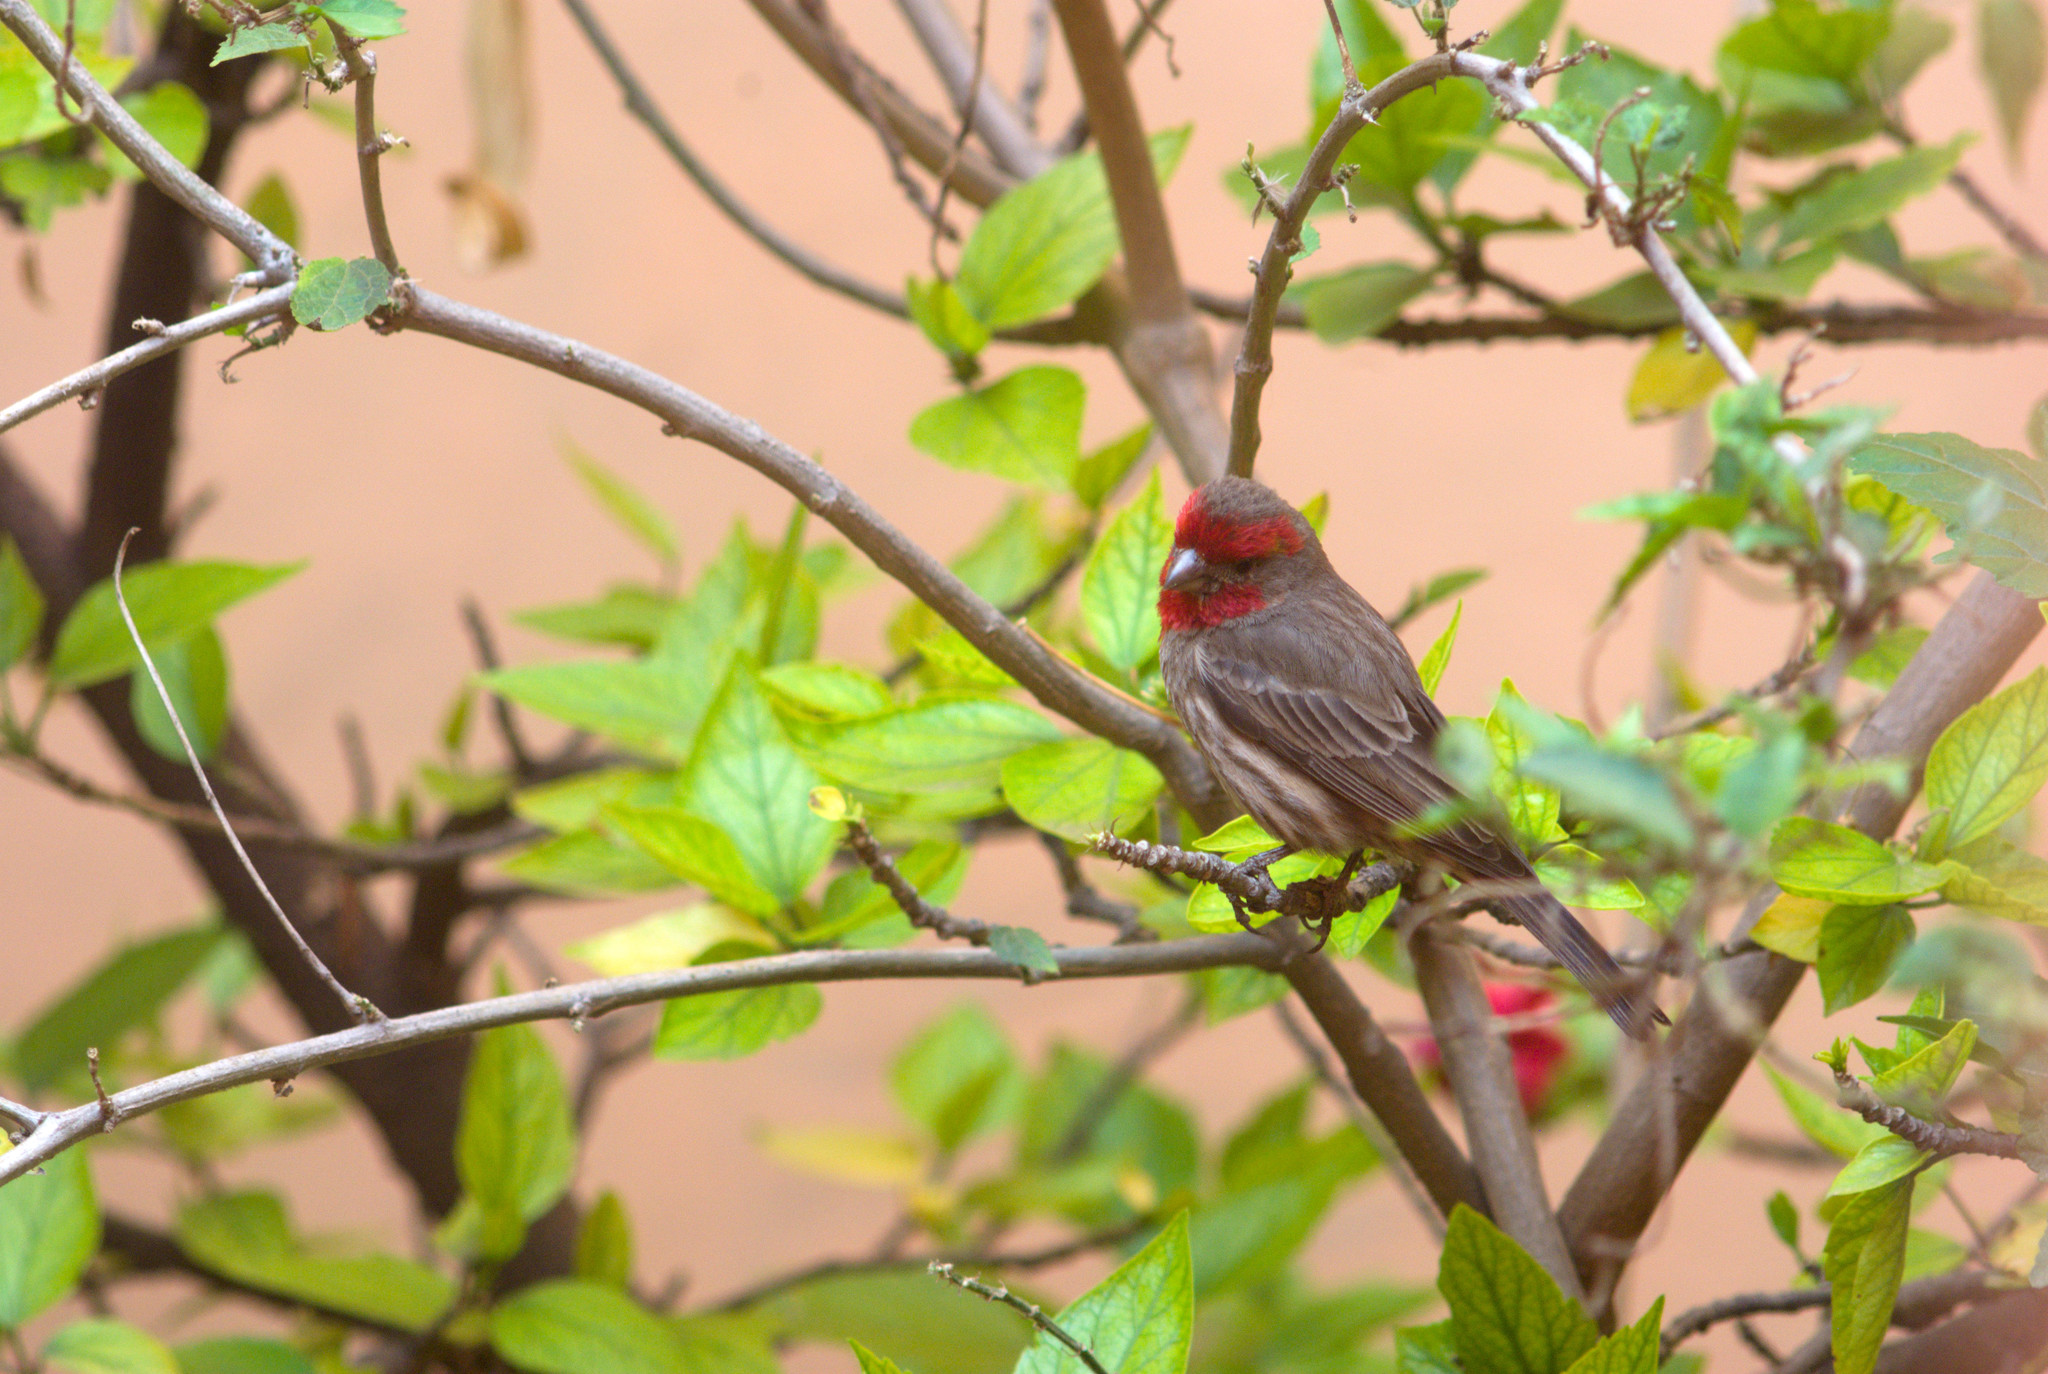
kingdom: Animalia
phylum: Chordata
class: Aves
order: Passeriformes
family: Fringillidae
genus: Haemorhous
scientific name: Haemorhous mexicanus
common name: House finch
